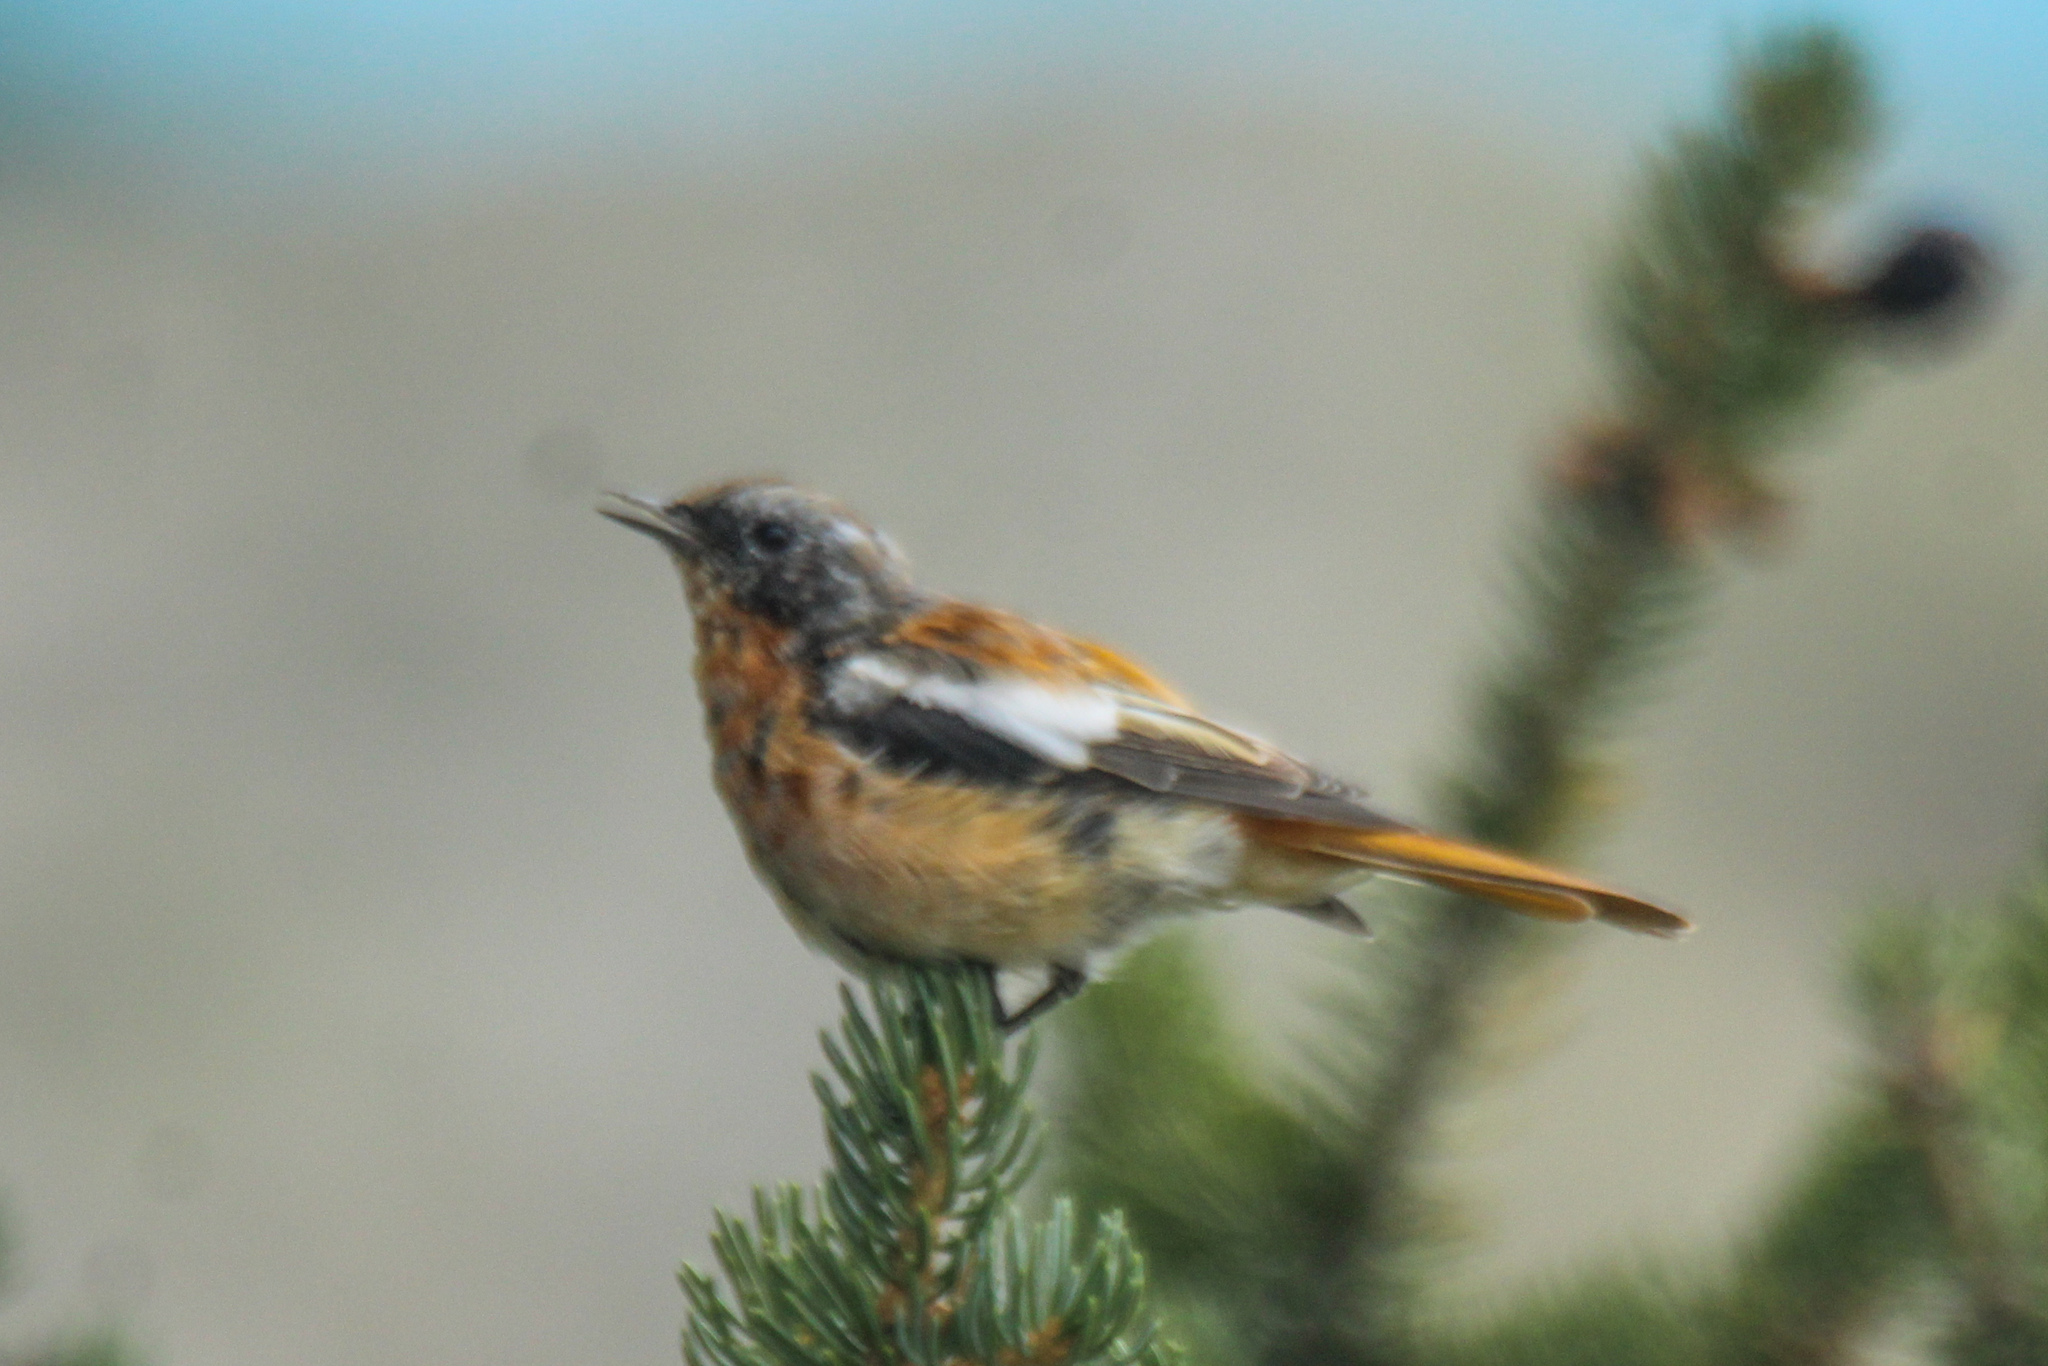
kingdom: Animalia
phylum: Chordata
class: Aves
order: Passeriformes
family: Muscicapidae
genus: Phoenicurus
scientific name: Phoenicurus erythronotus
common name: Eversmann's redstart
